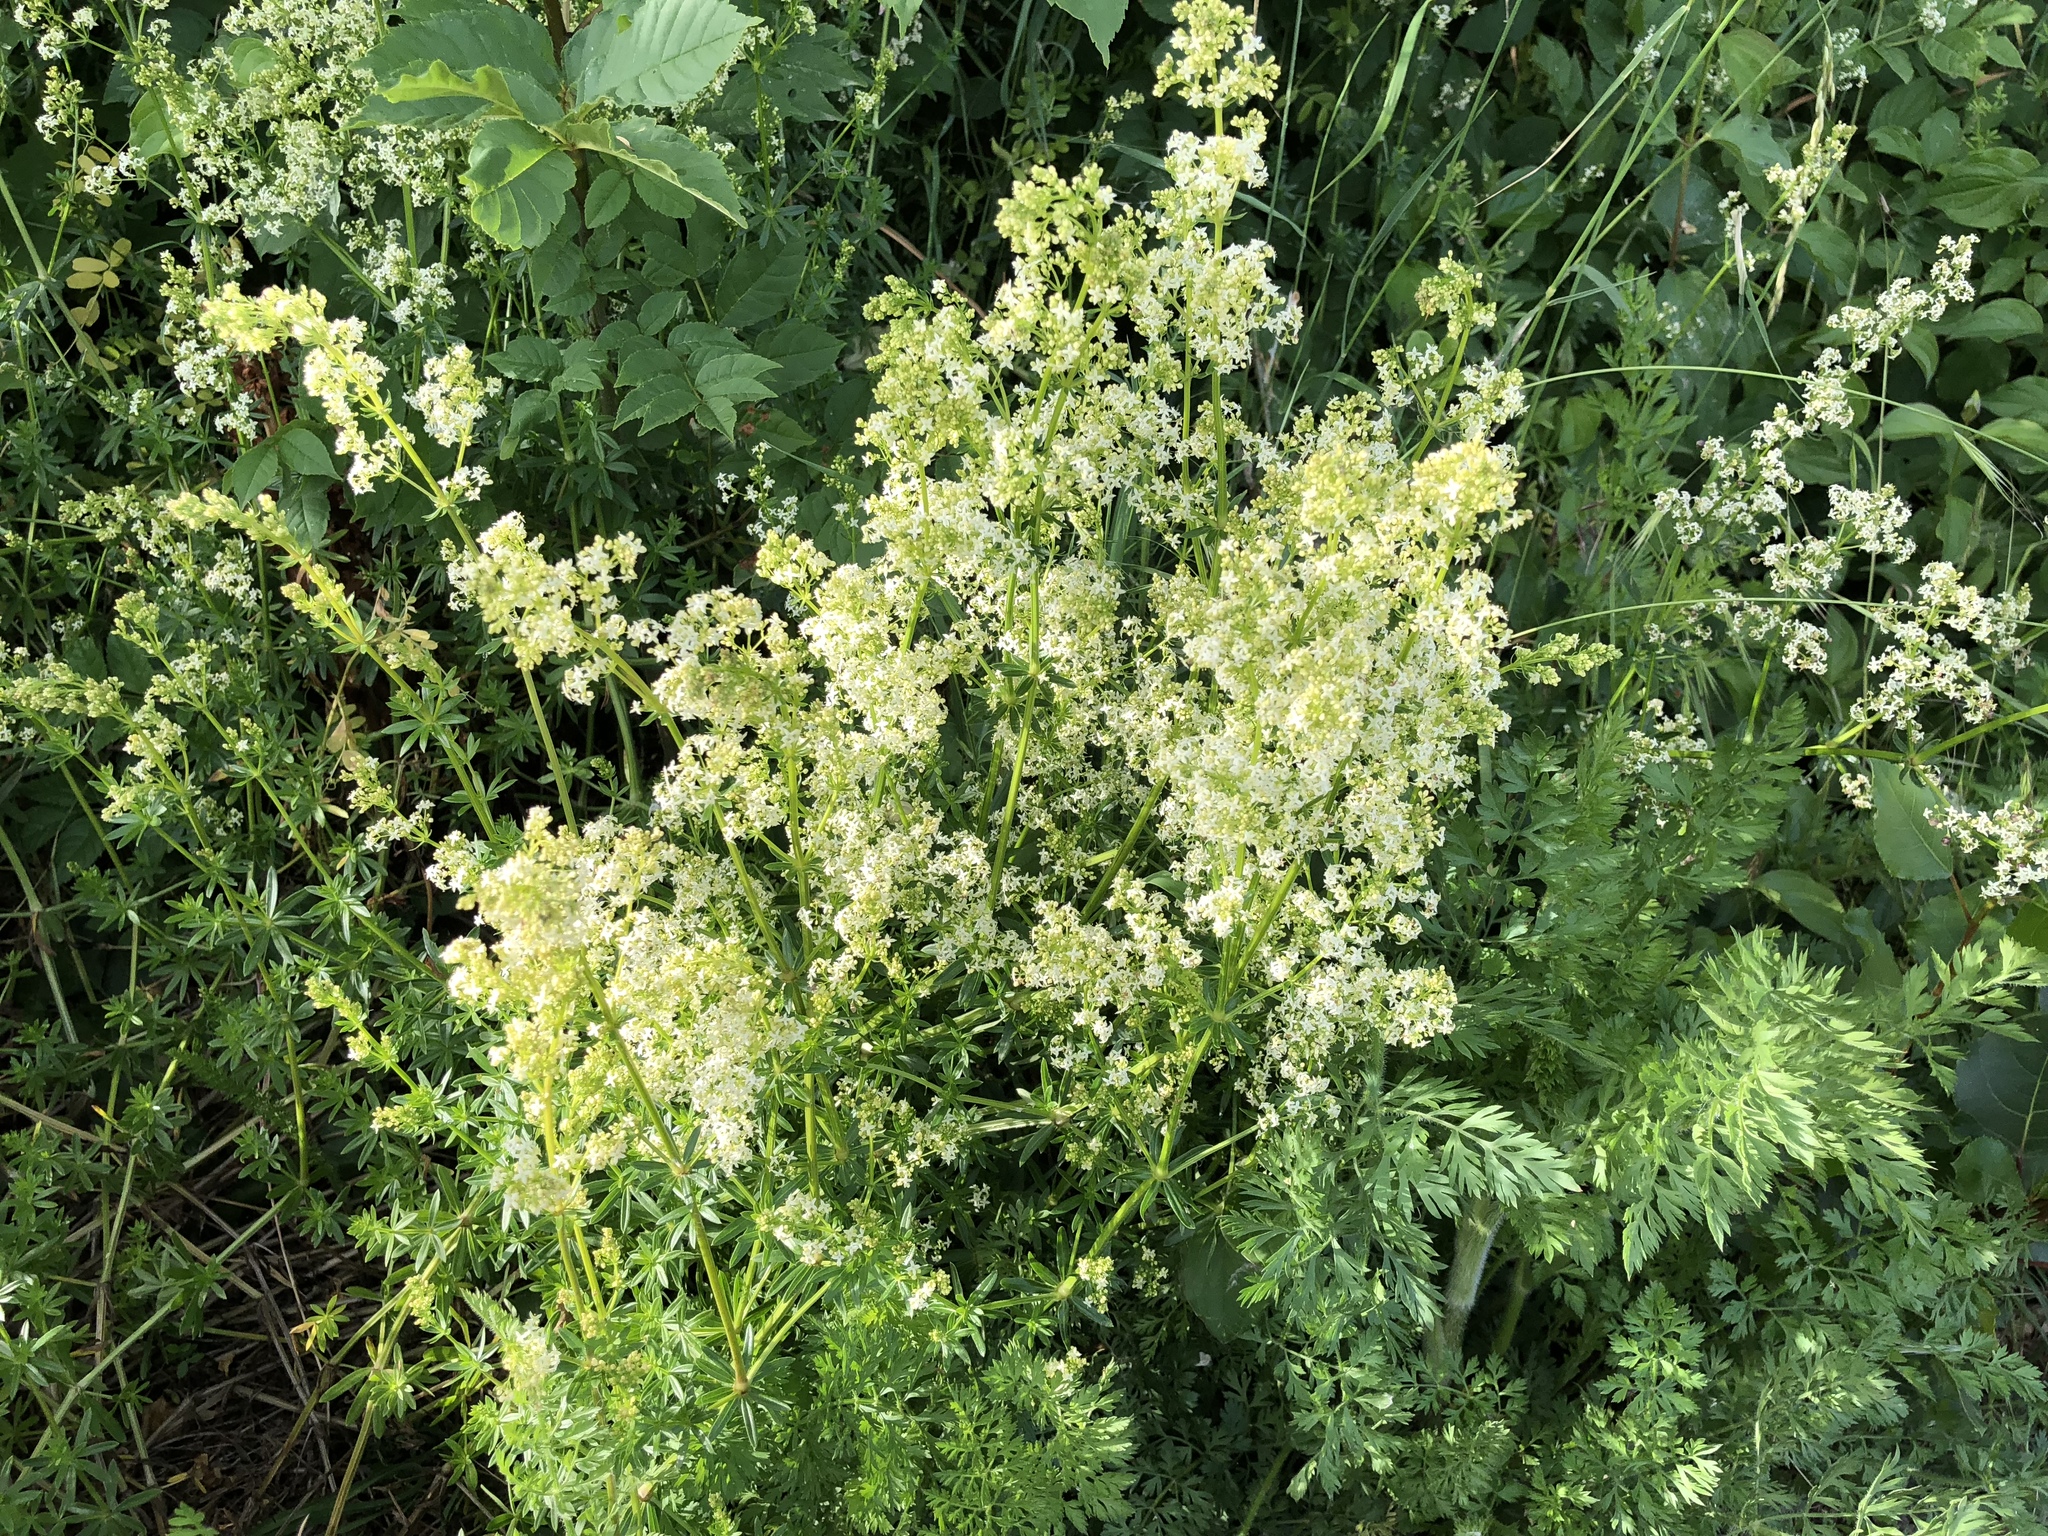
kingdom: Plantae
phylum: Tracheophyta
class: Magnoliopsida
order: Gentianales
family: Rubiaceae
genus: Galium
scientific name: Galium mollugo
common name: Hedge bedstraw
